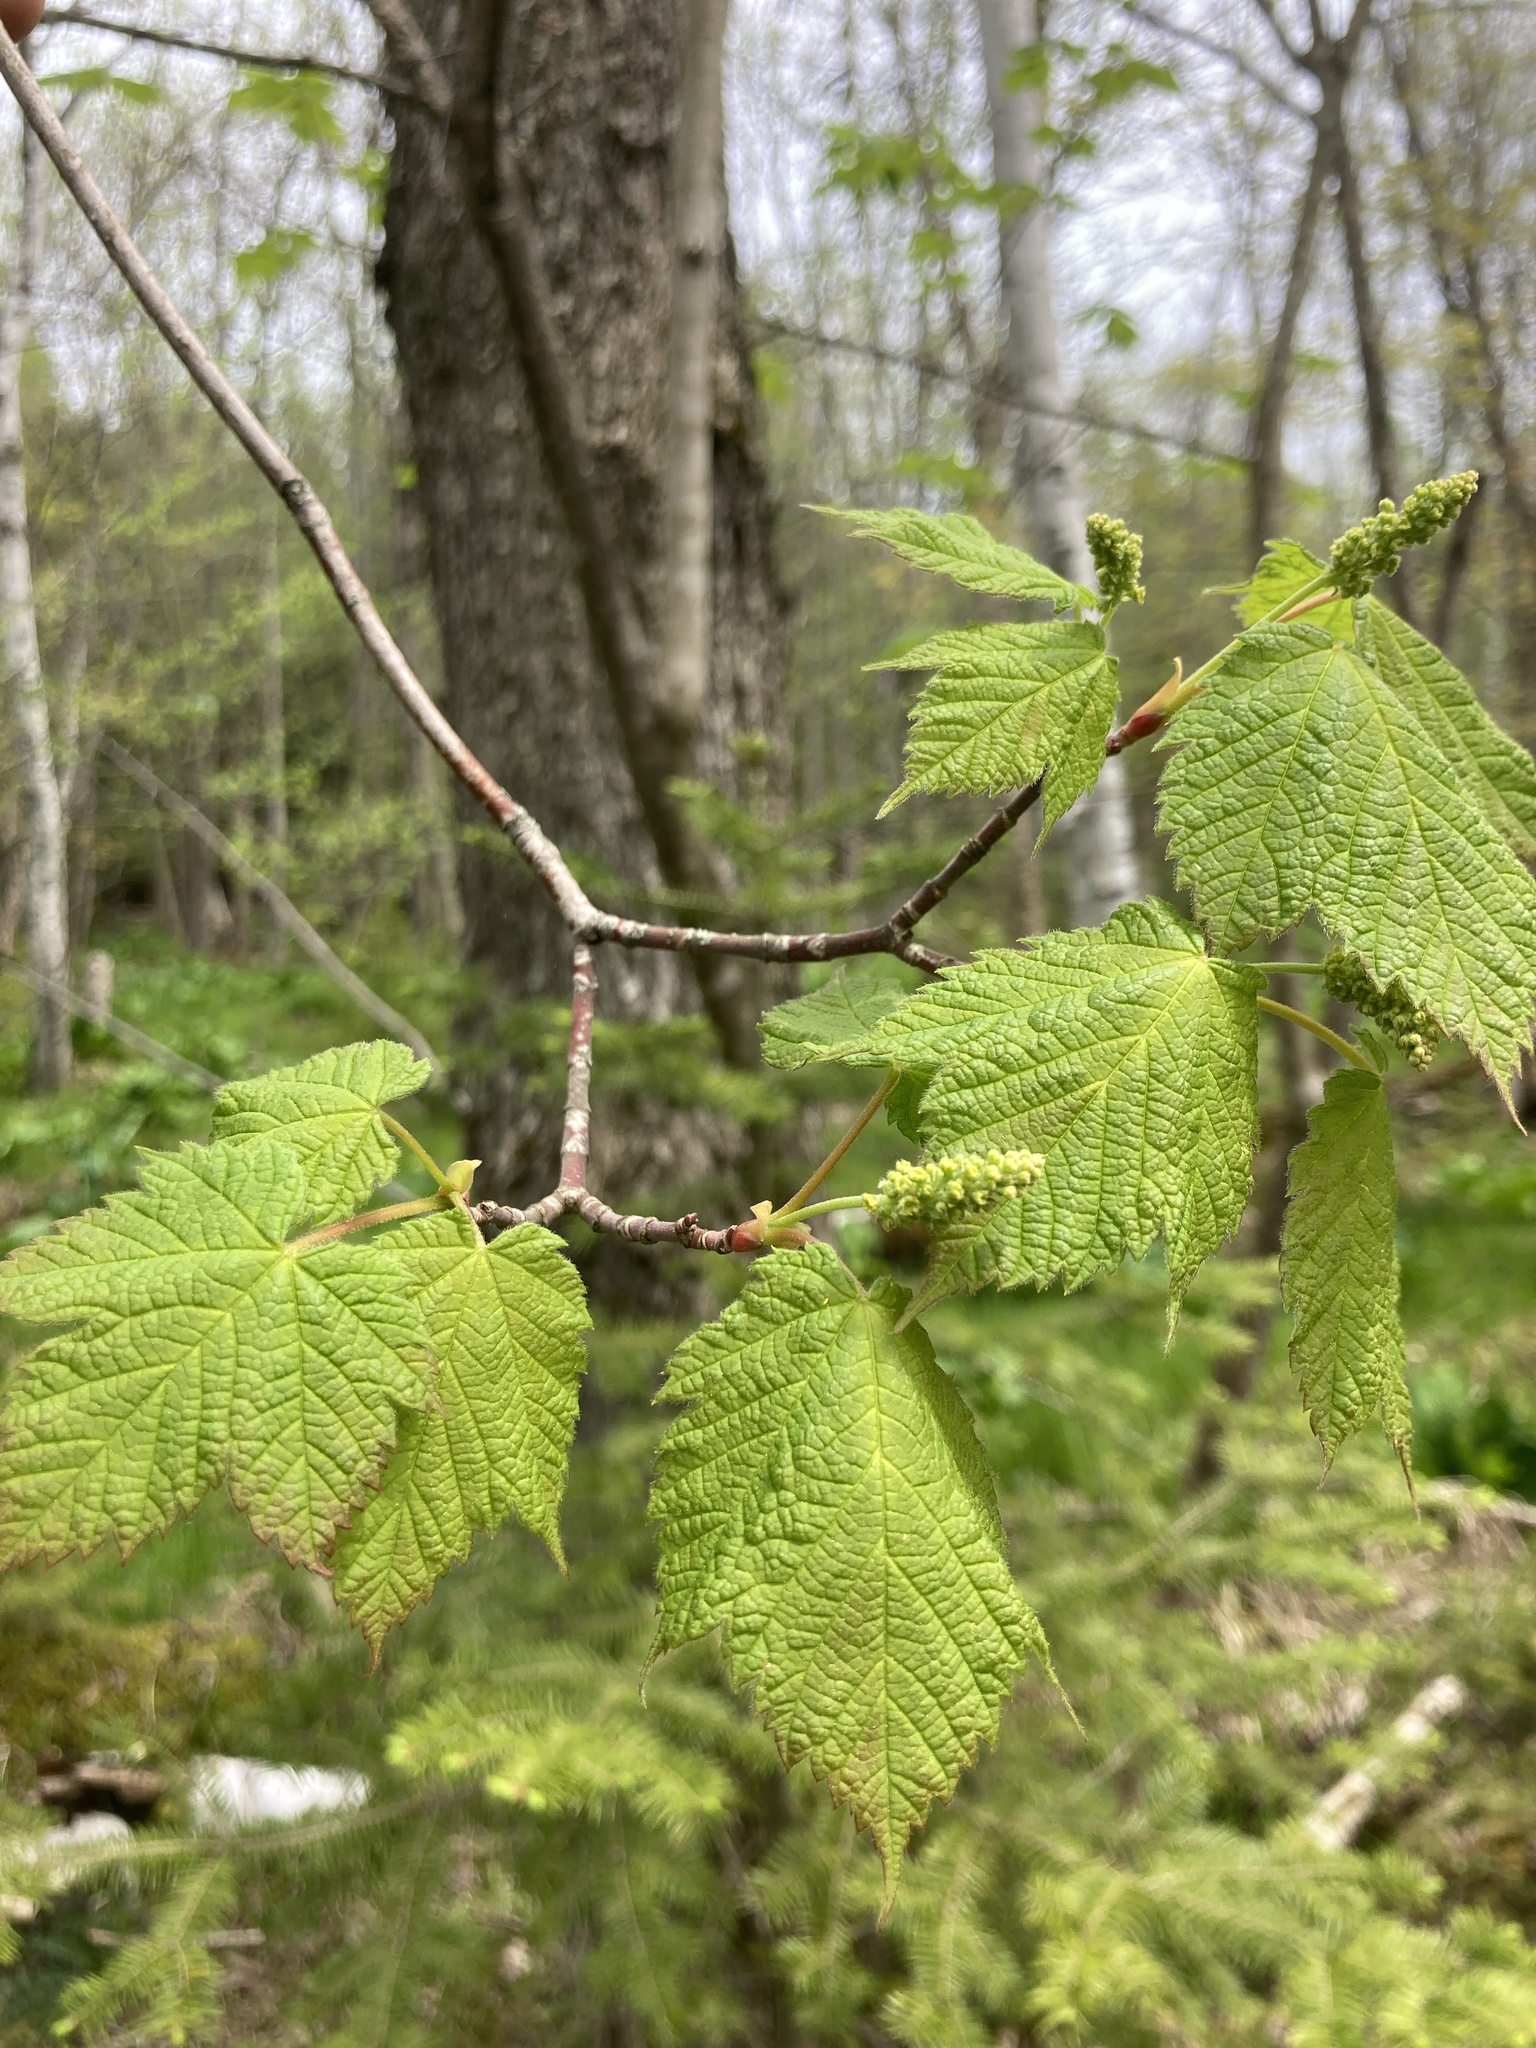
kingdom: Plantae
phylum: Tracheophyta
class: Magnoliopsida
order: Sapindales
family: Sapindaceae
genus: Acer
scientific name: Acer spicatum
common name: Mountain maple
